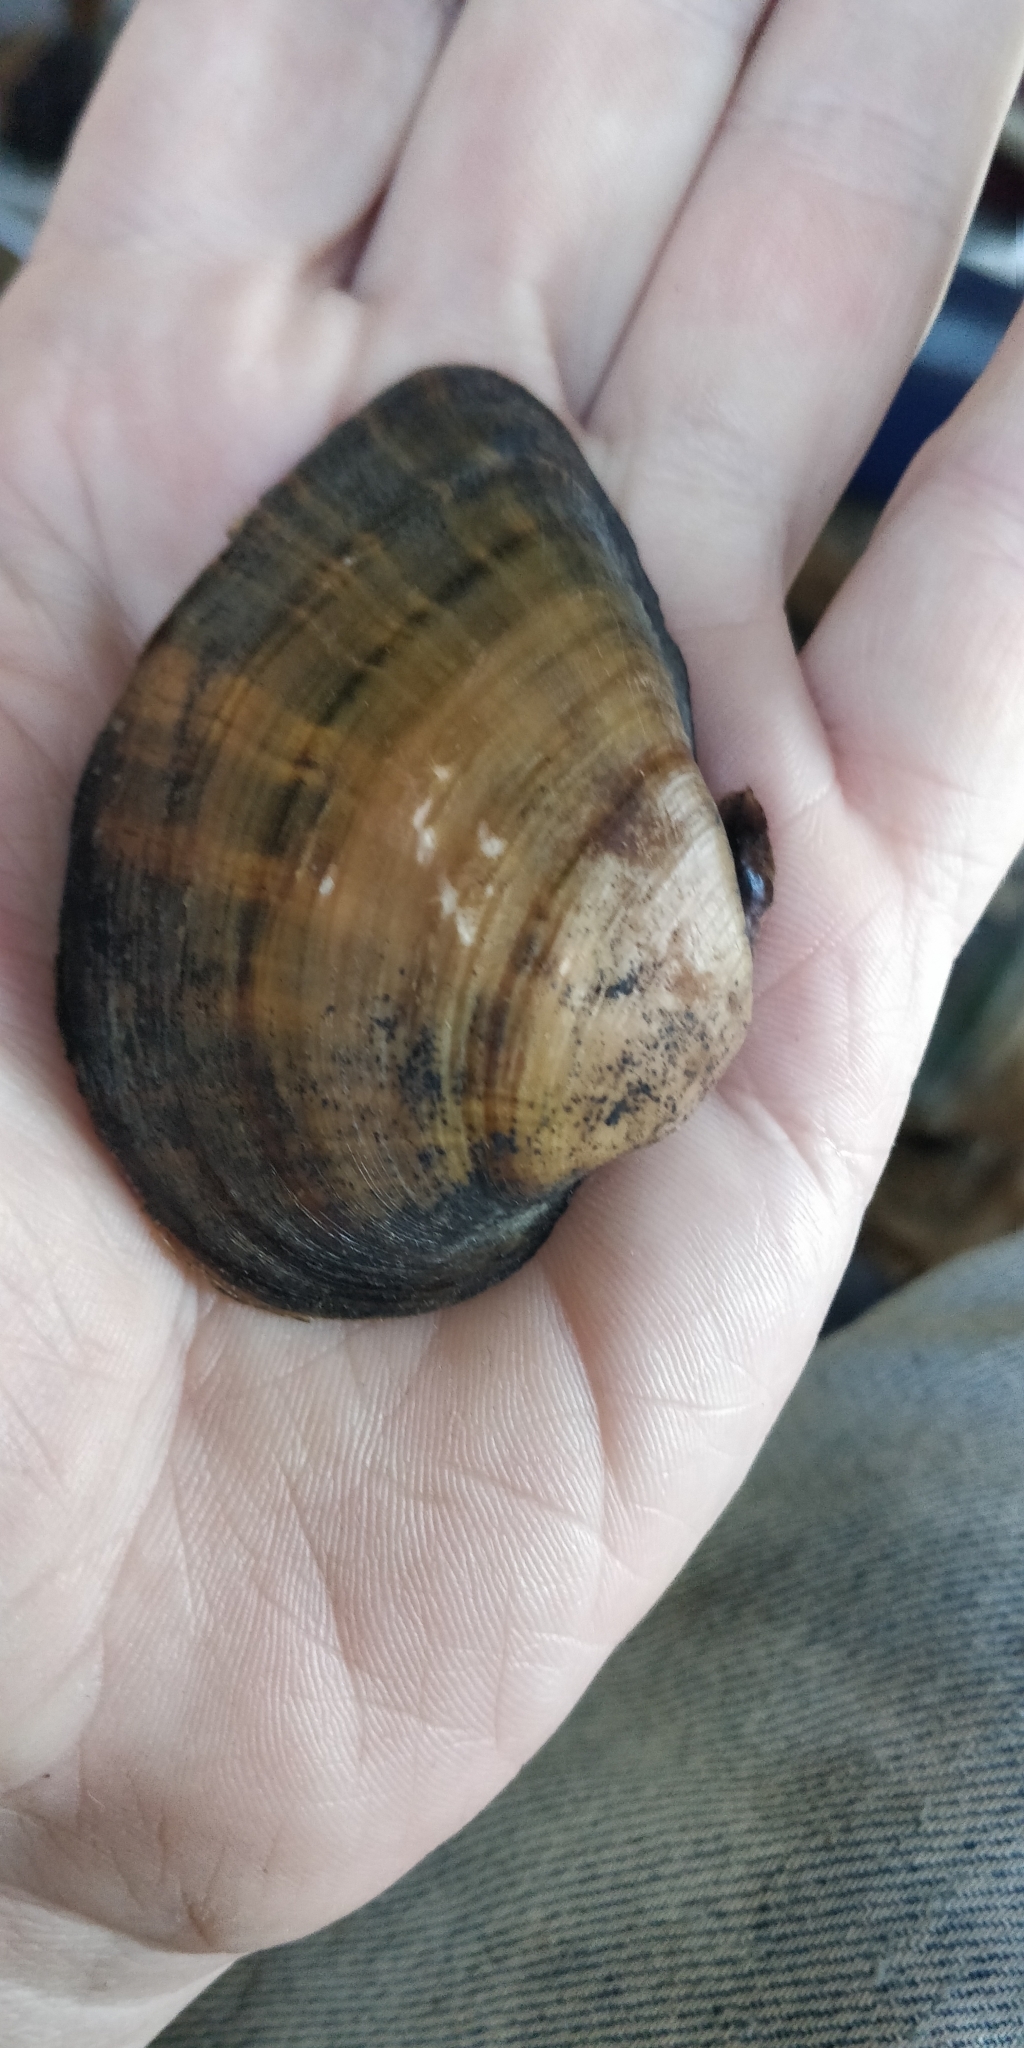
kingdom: Animalia
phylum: Mollusca
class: Bivalvia
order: Unionida
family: Unionidae
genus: Truncilla
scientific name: Truncilla truncata
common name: Deertoe
